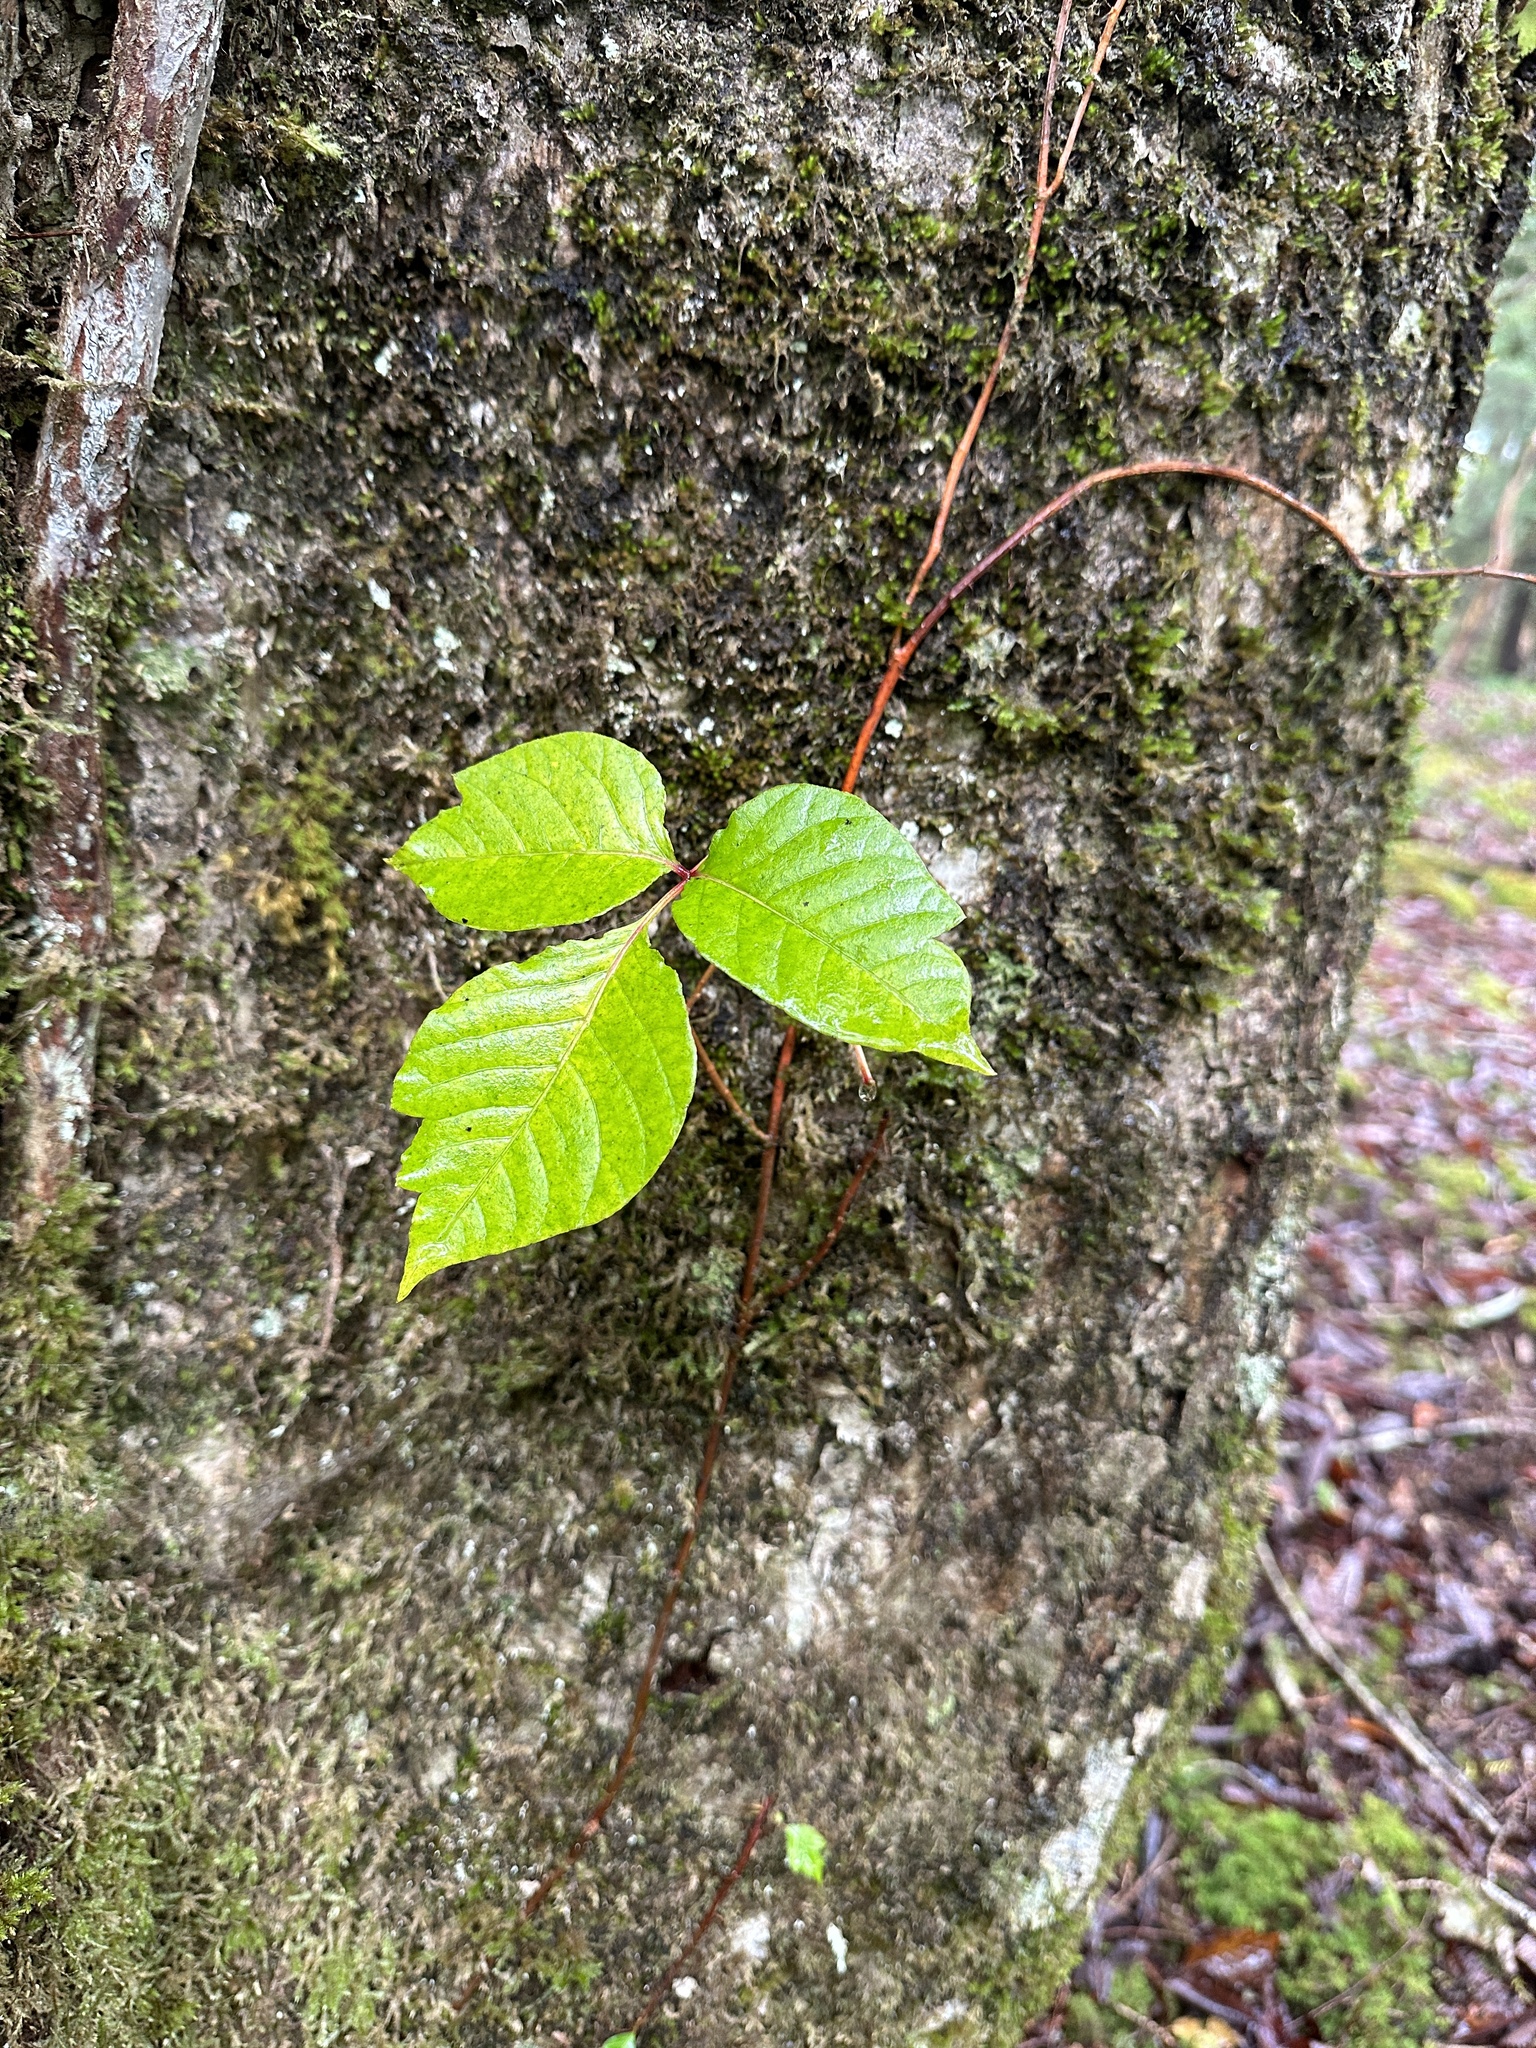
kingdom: Plantae
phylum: Tracheophyta
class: Magnoliopsida
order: Sapindales
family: Anacardiaceae
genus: Toxicodendron
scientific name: Toxicodendron orientale
